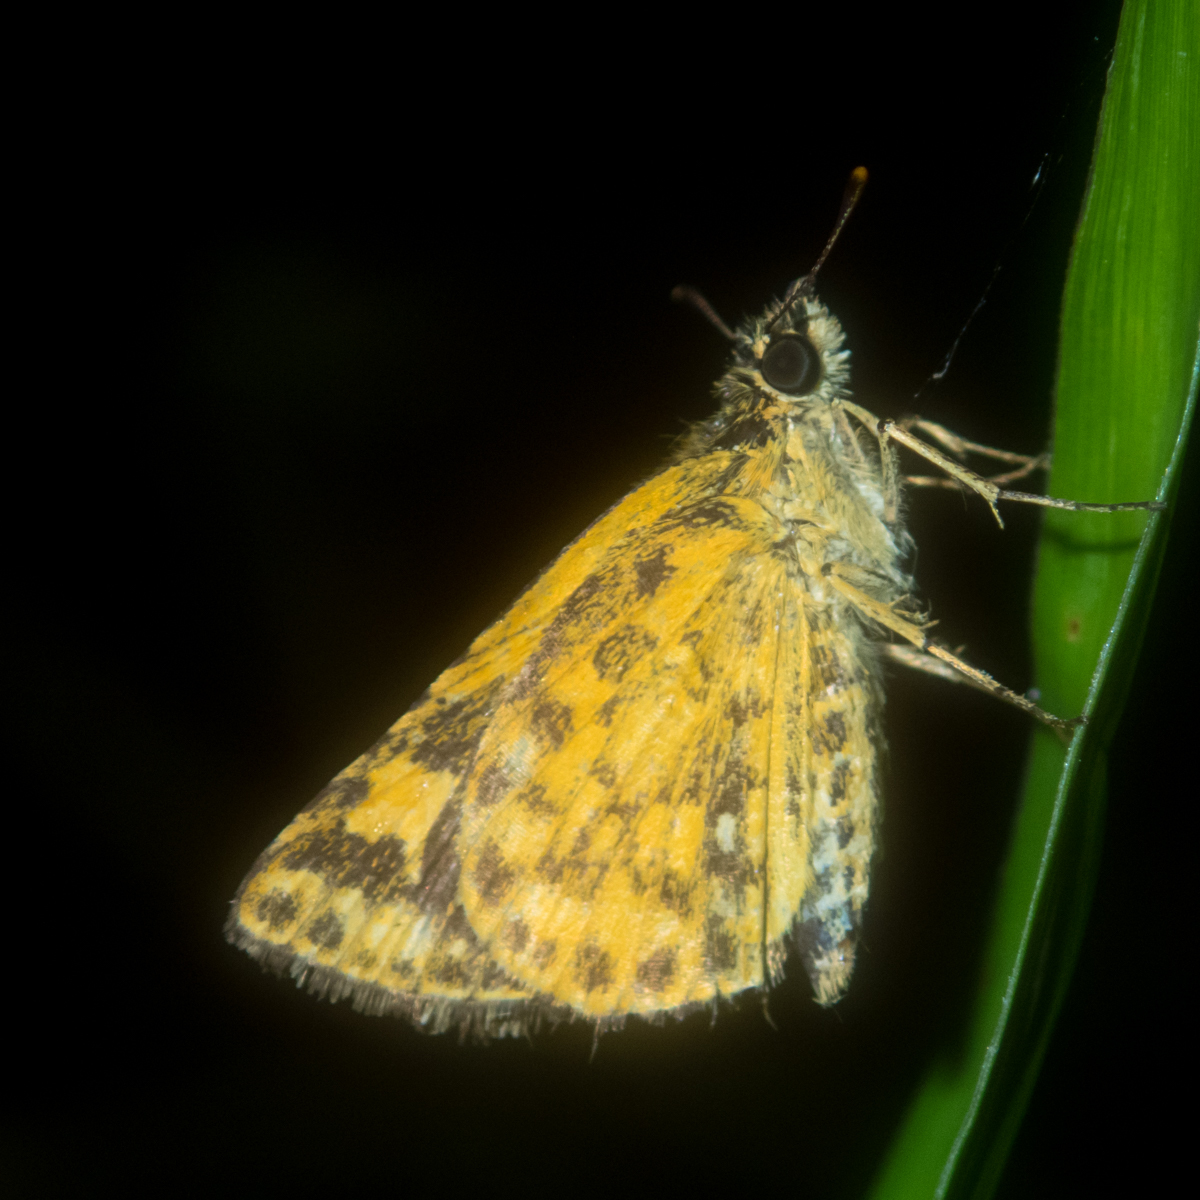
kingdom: Animalia
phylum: Arthropoda
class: Insecta
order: Lepidoptera
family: Hesperiidae
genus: Ampittia
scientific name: Ampittia dioscorides
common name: Common bush hopper
